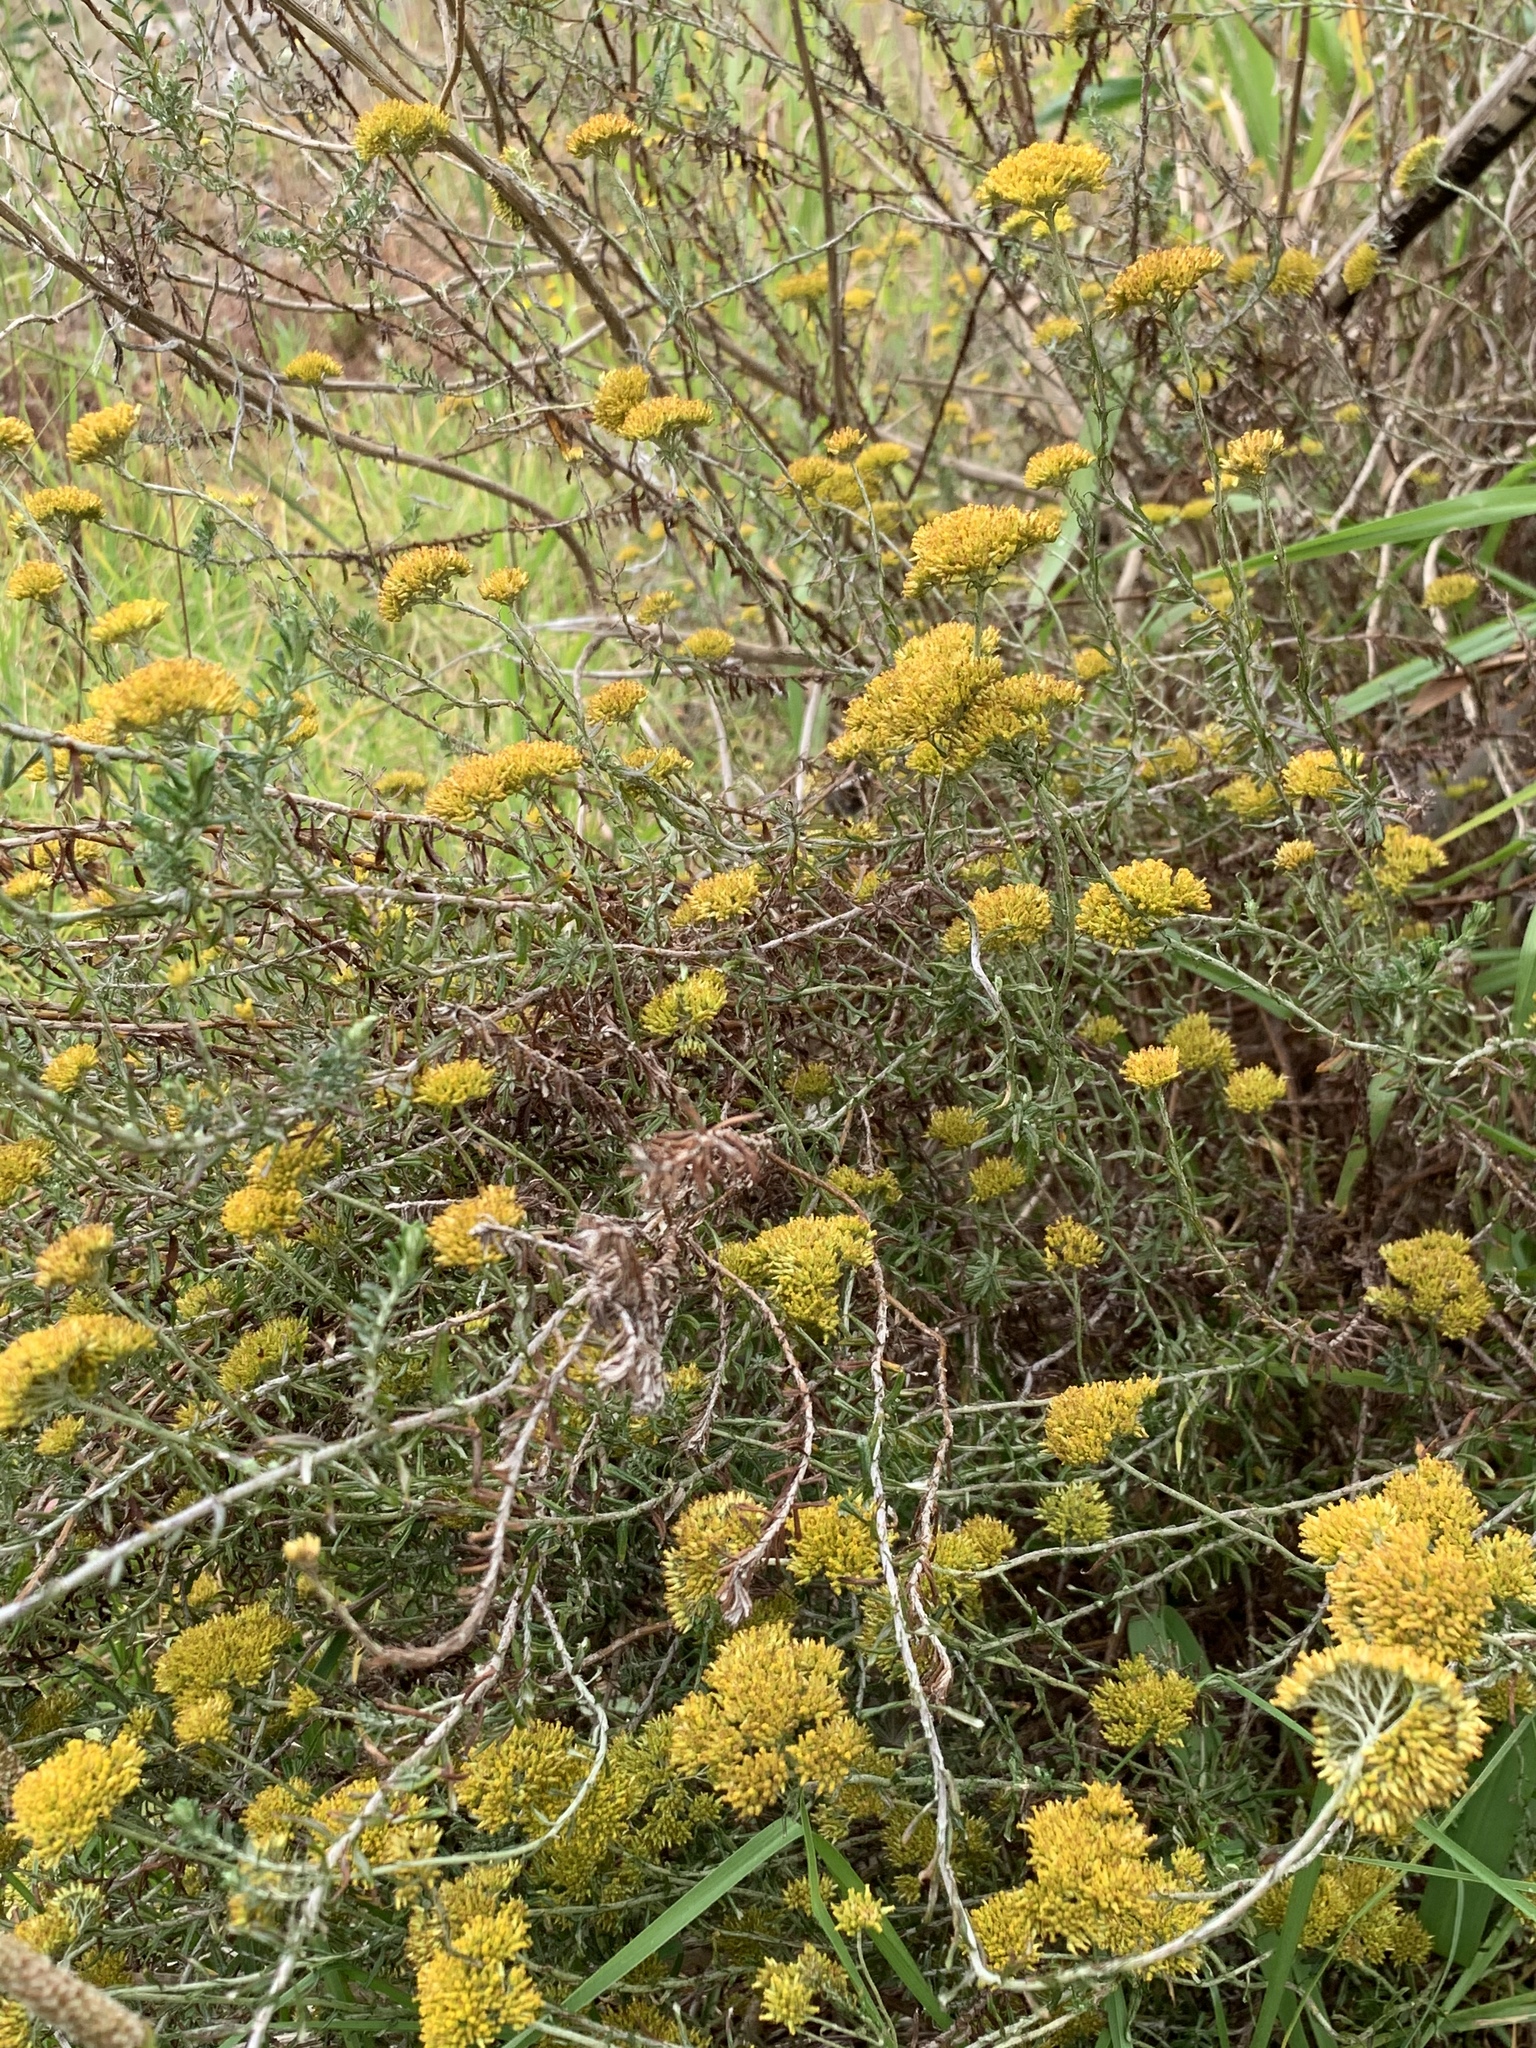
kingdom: Plantae
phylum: Tracheophyta
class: Magnoliopsida
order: Asterales
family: Asteraceae
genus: Helichrysum
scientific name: Helichrysum cymosum
